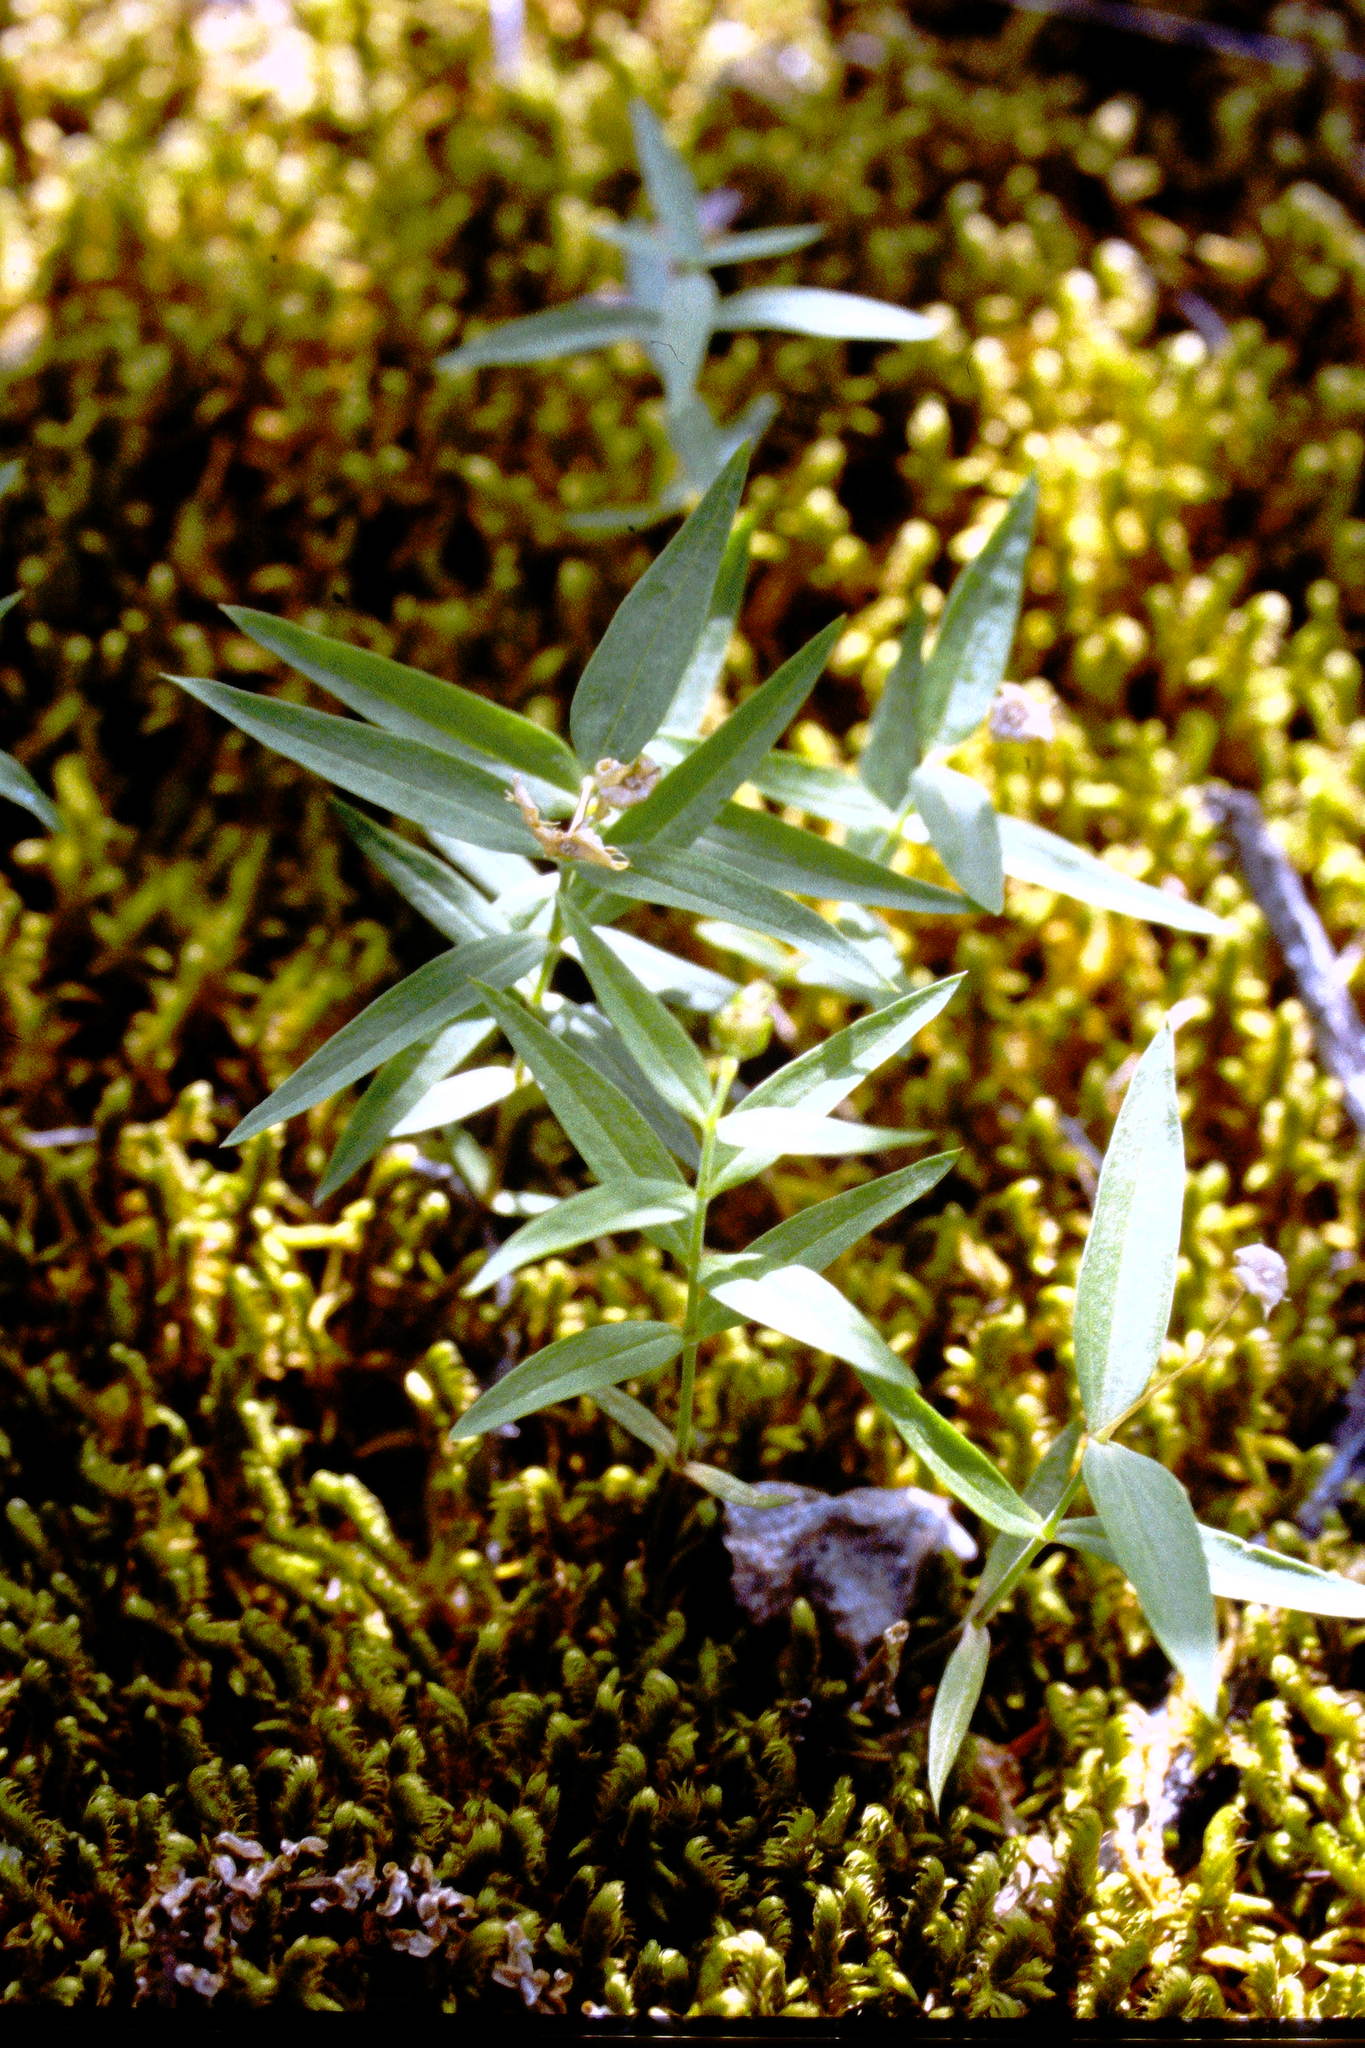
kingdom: Plantae
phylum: Tracheophyta
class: Magnoliopsida
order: Caryophyllales
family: Caryophyllaceae
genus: Moehringia
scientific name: Moehringia macrophylla
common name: Big-leaf sandwort
